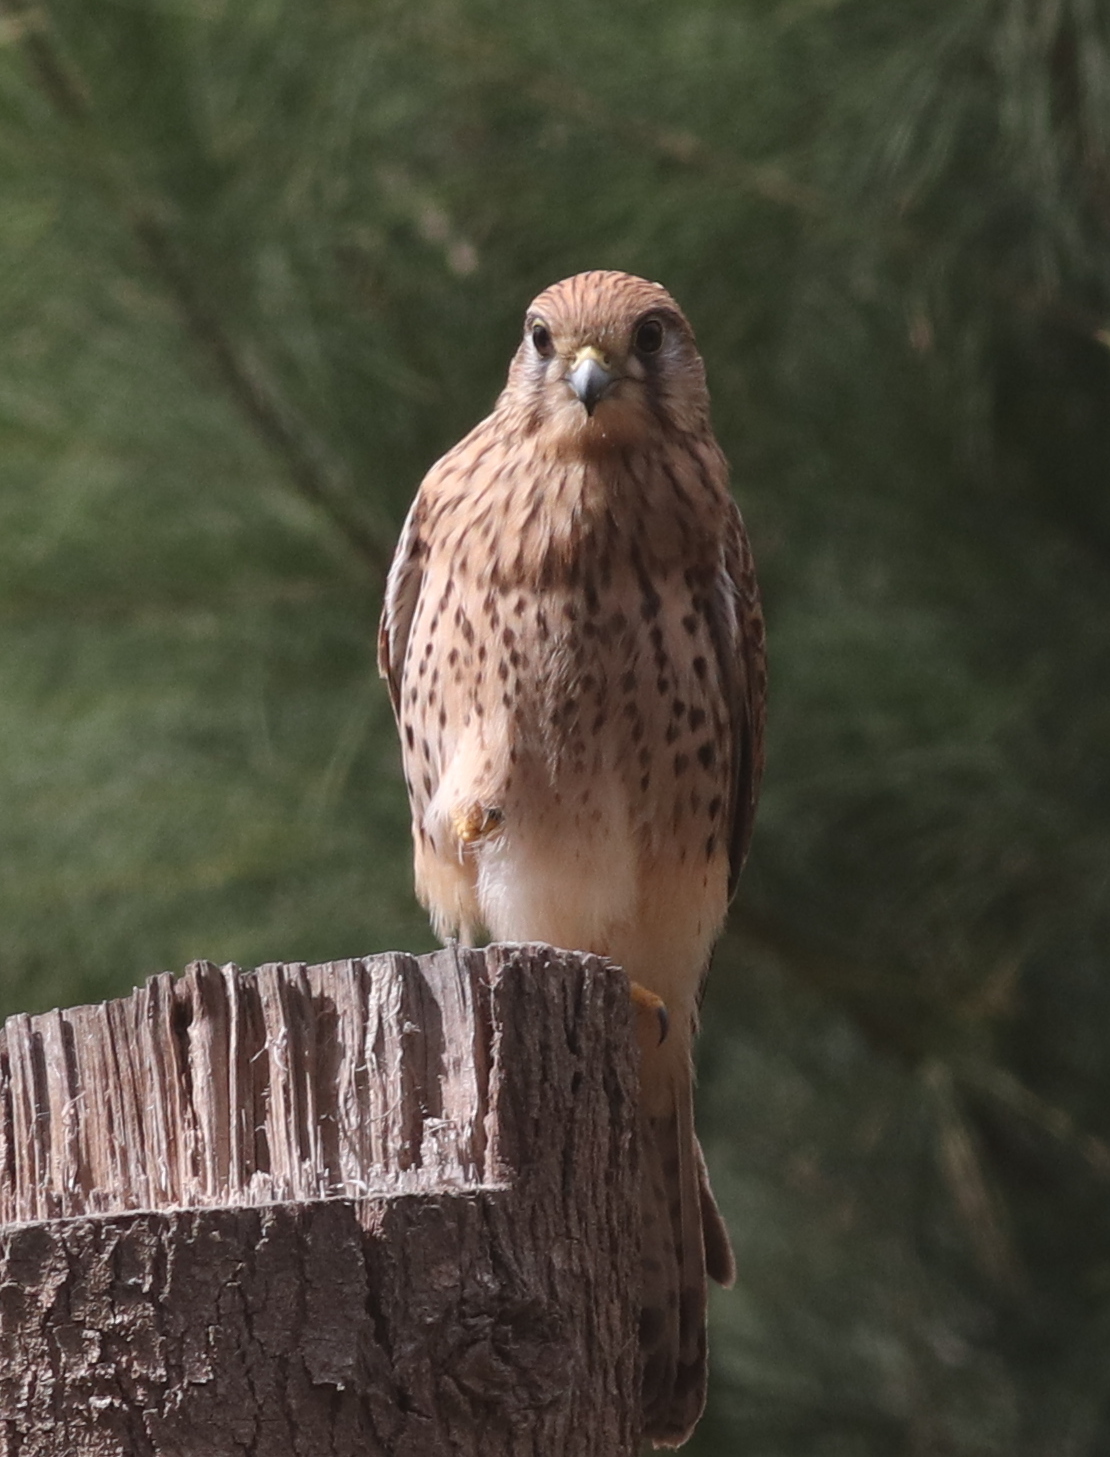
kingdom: Animalia
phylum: Chordata
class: Aves
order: Falconiformes
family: Falconidae
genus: Falco
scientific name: Falco tinnunculus
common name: Common kestrel
